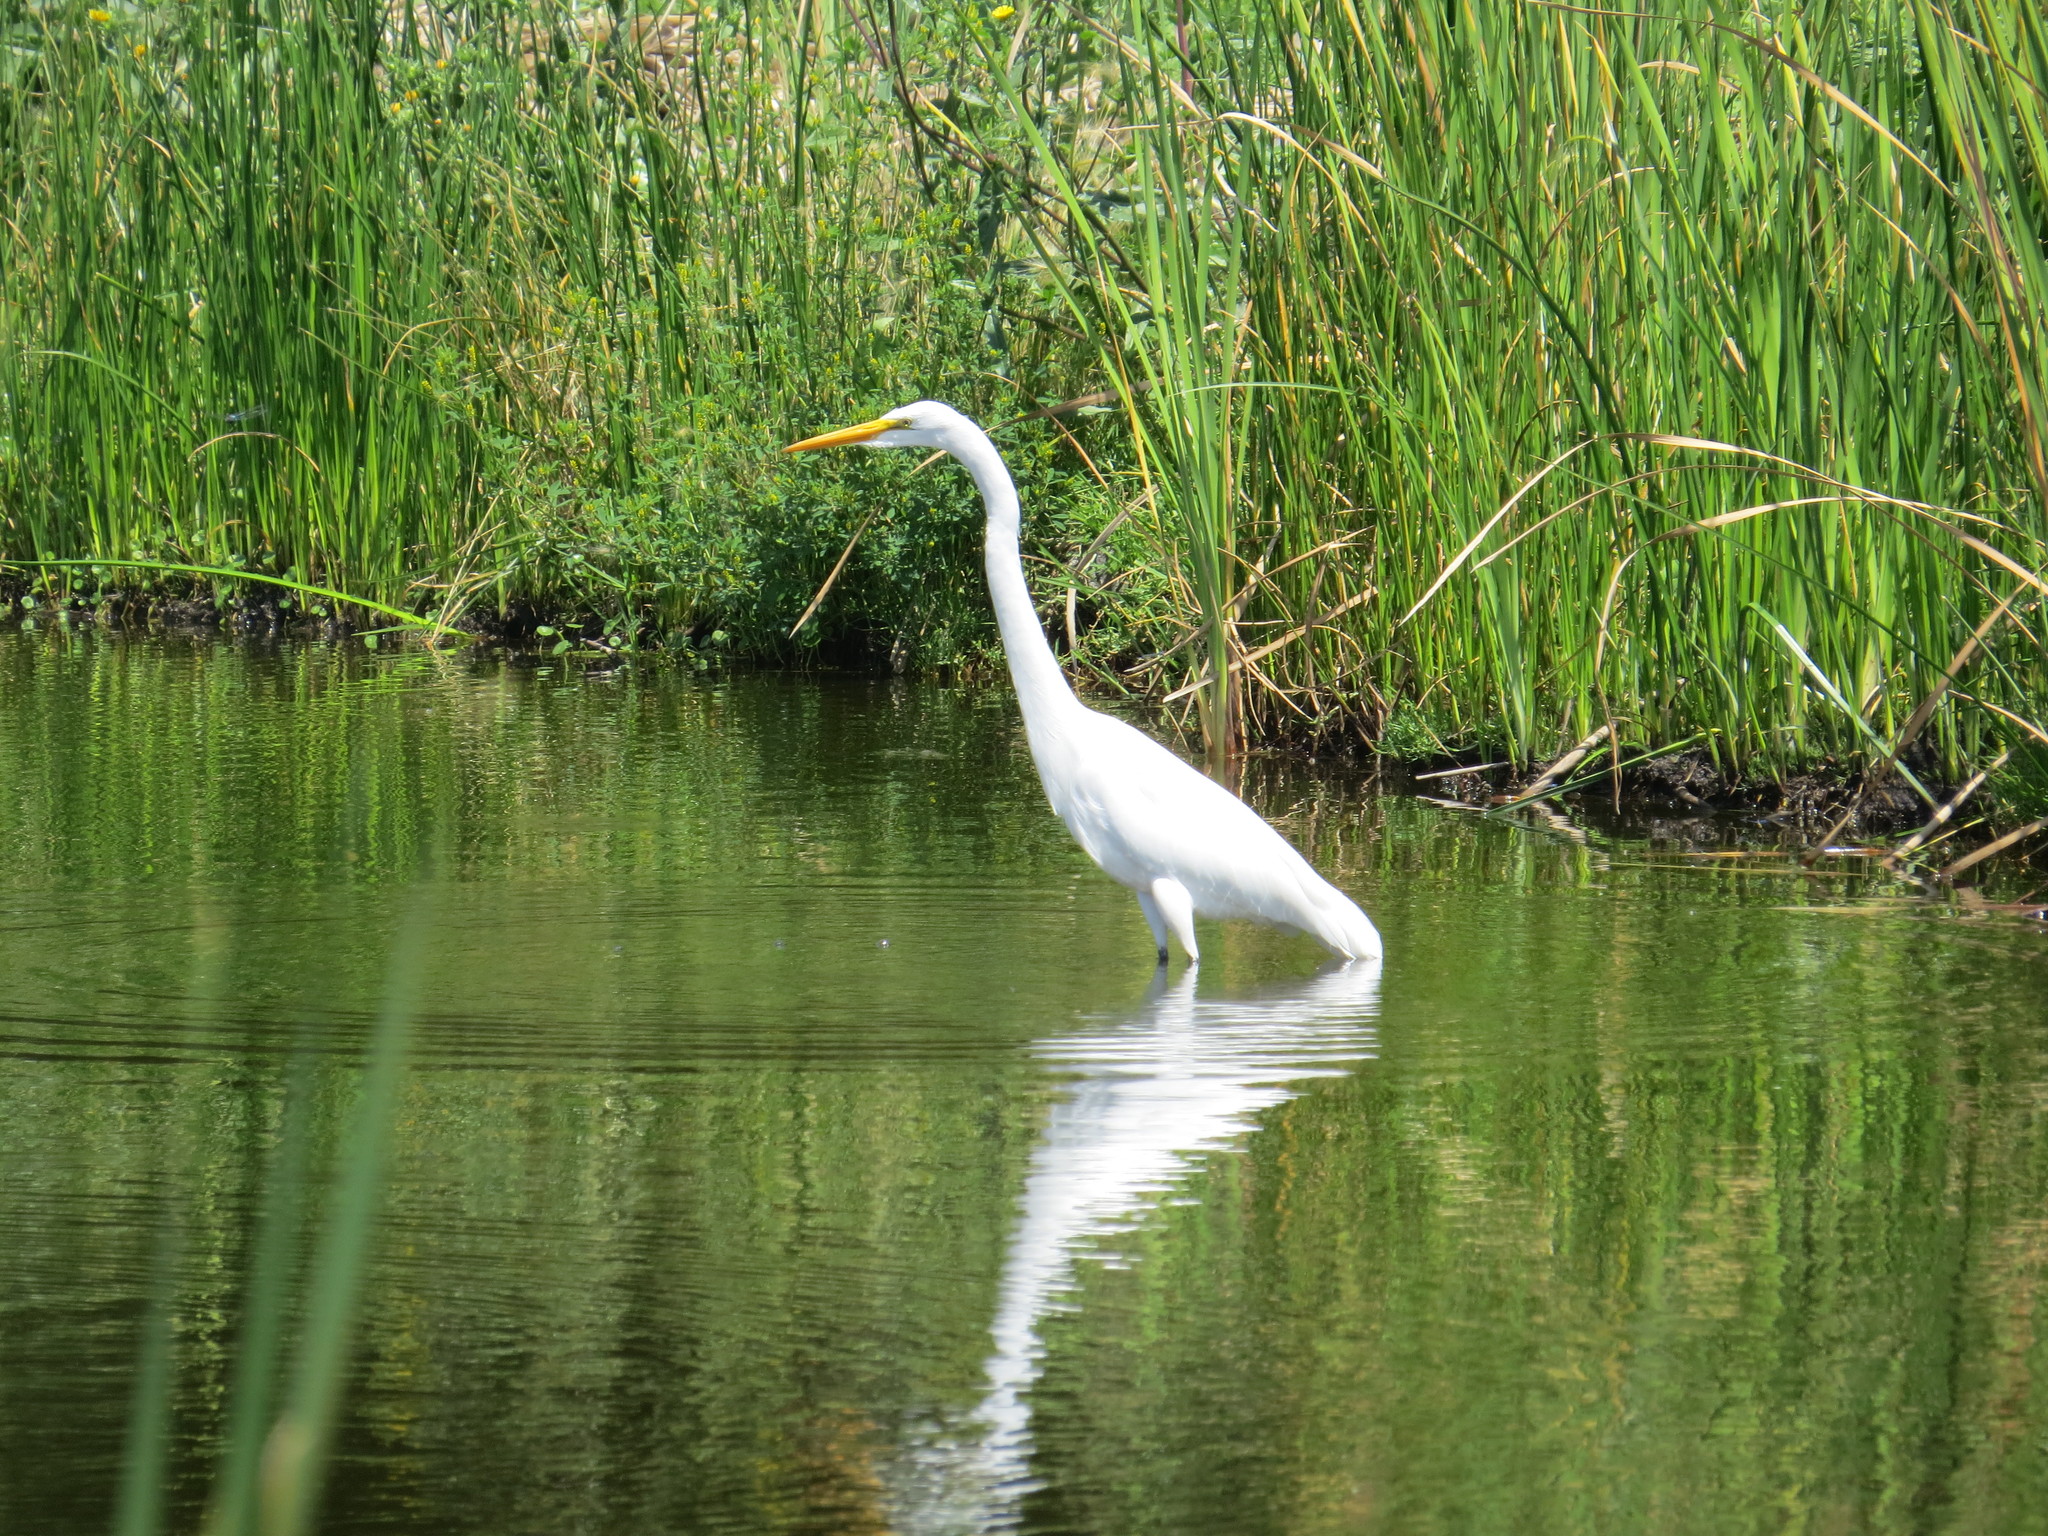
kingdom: Animalia
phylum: Chordata
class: Aves
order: Pelecaniformes
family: Ardeidae
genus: Ardea
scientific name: Ardea alba
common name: Great egret
